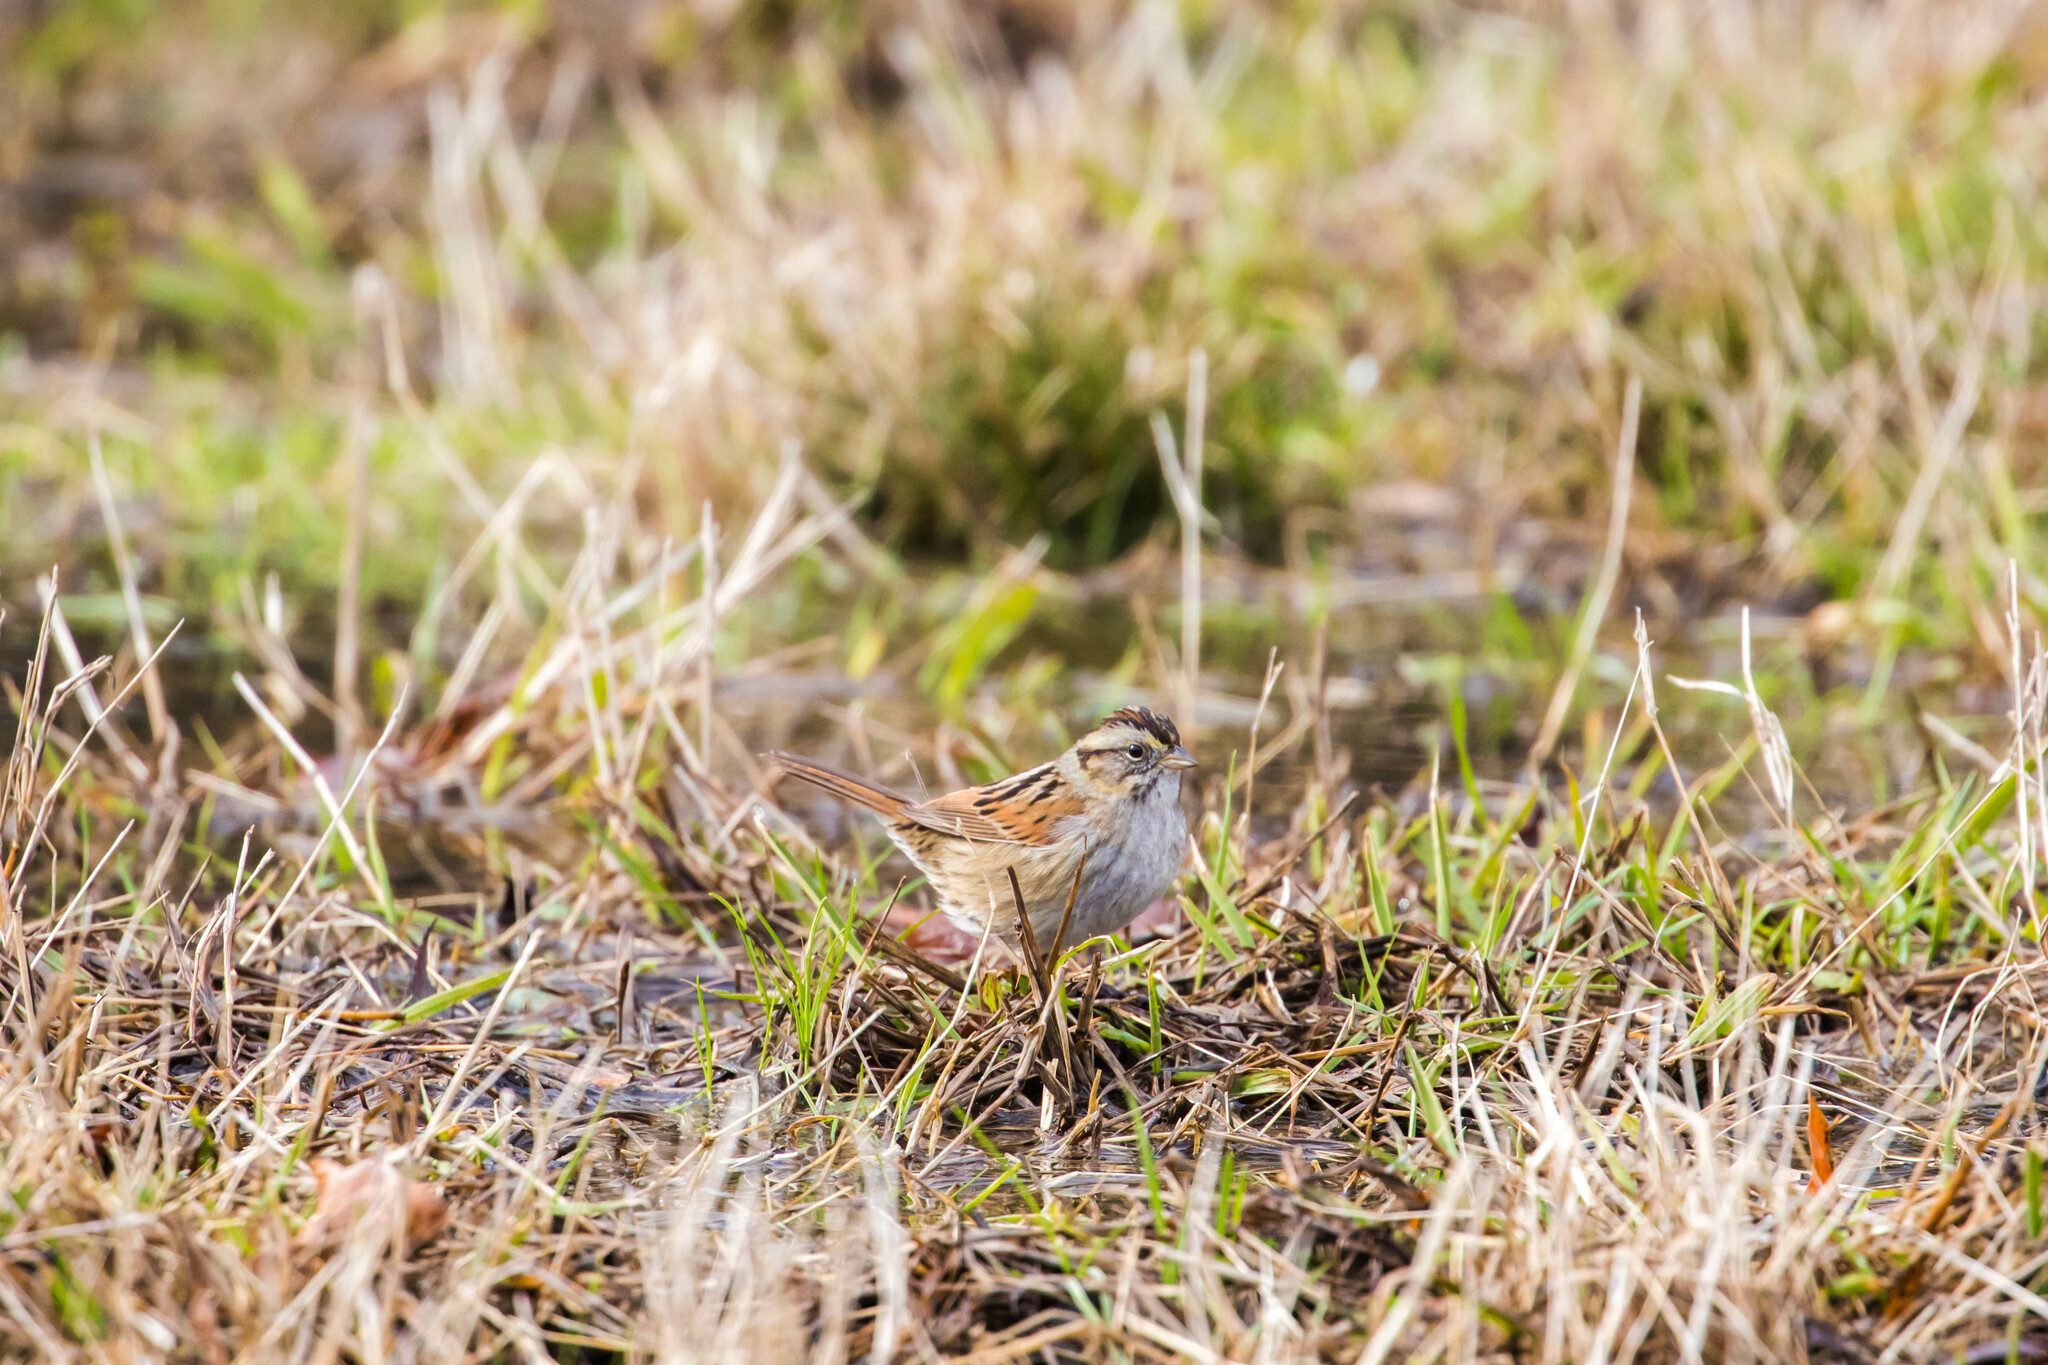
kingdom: Animalia
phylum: Chordata
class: Aves
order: Passeriformes
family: Passerellidae
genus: Melospiza
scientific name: Melospiza georgiana
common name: Swamp sparrow
